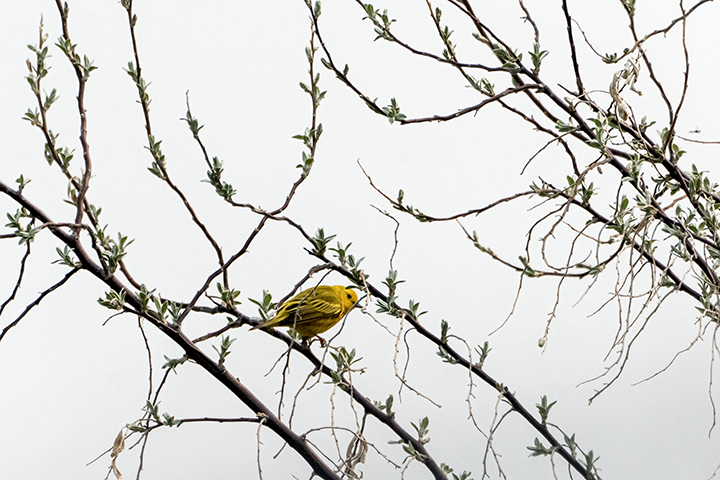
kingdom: Animalia
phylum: Chordata
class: Aves
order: Passeriformes
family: Parulidae
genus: Setophaga
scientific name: Setophaga petechia
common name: Yellow warbler
